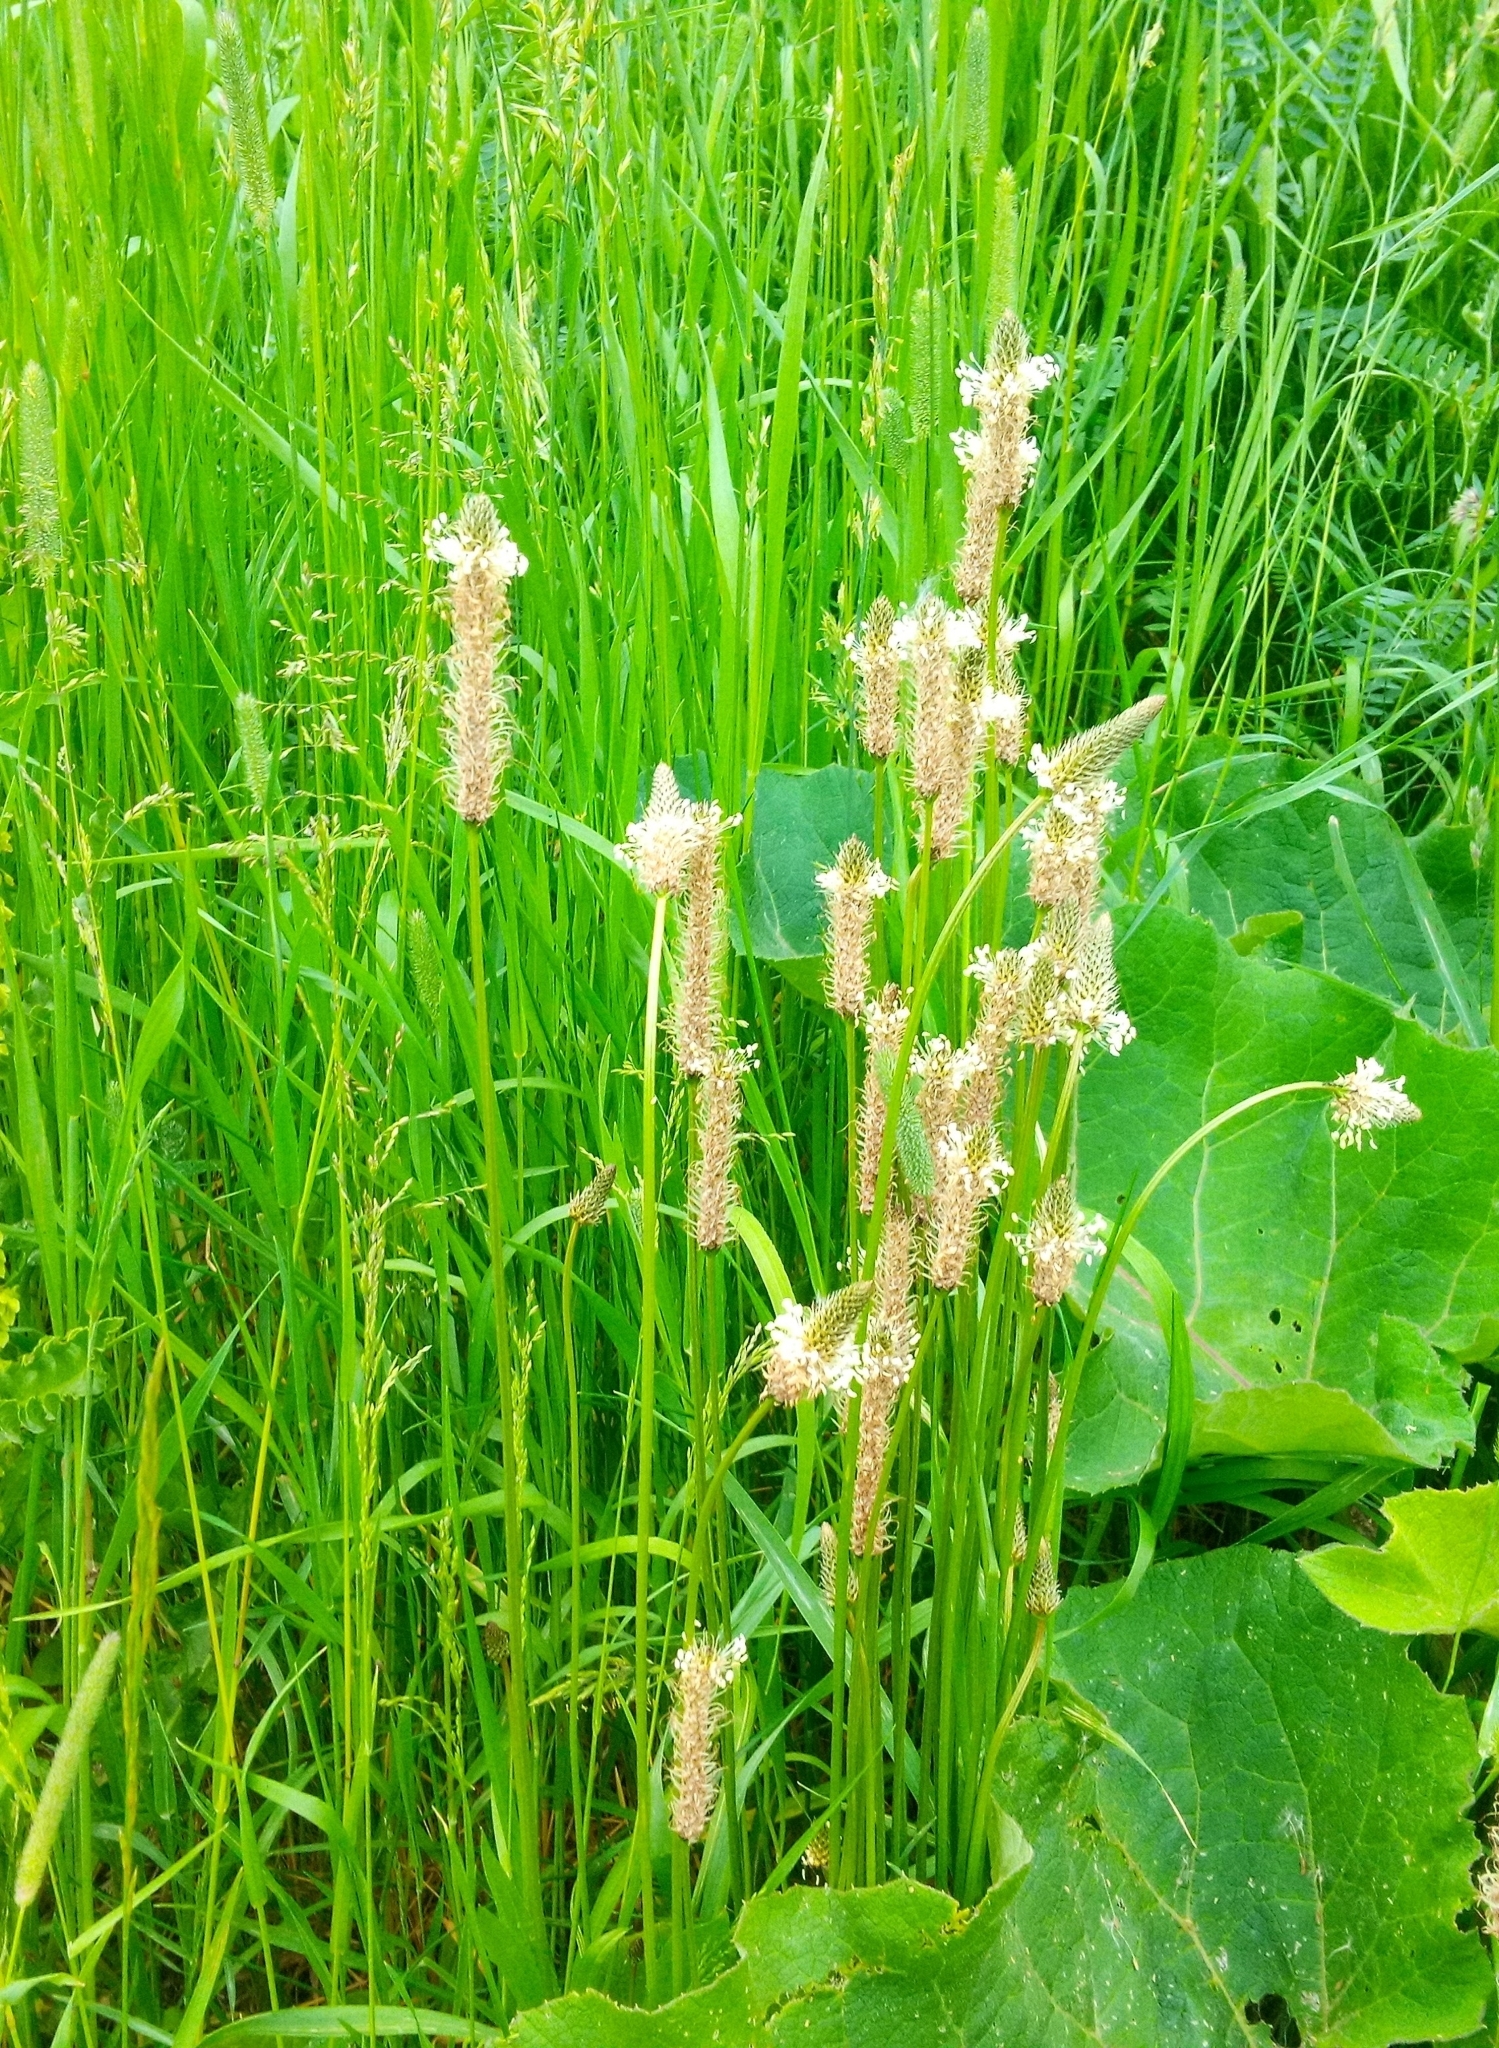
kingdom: Plantae
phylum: Tracheophyta
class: Magnoliopsida
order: Lamiales
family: Plantaginaceae
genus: Plantago
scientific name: Plantago lanceolata
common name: Ribwort plantain
